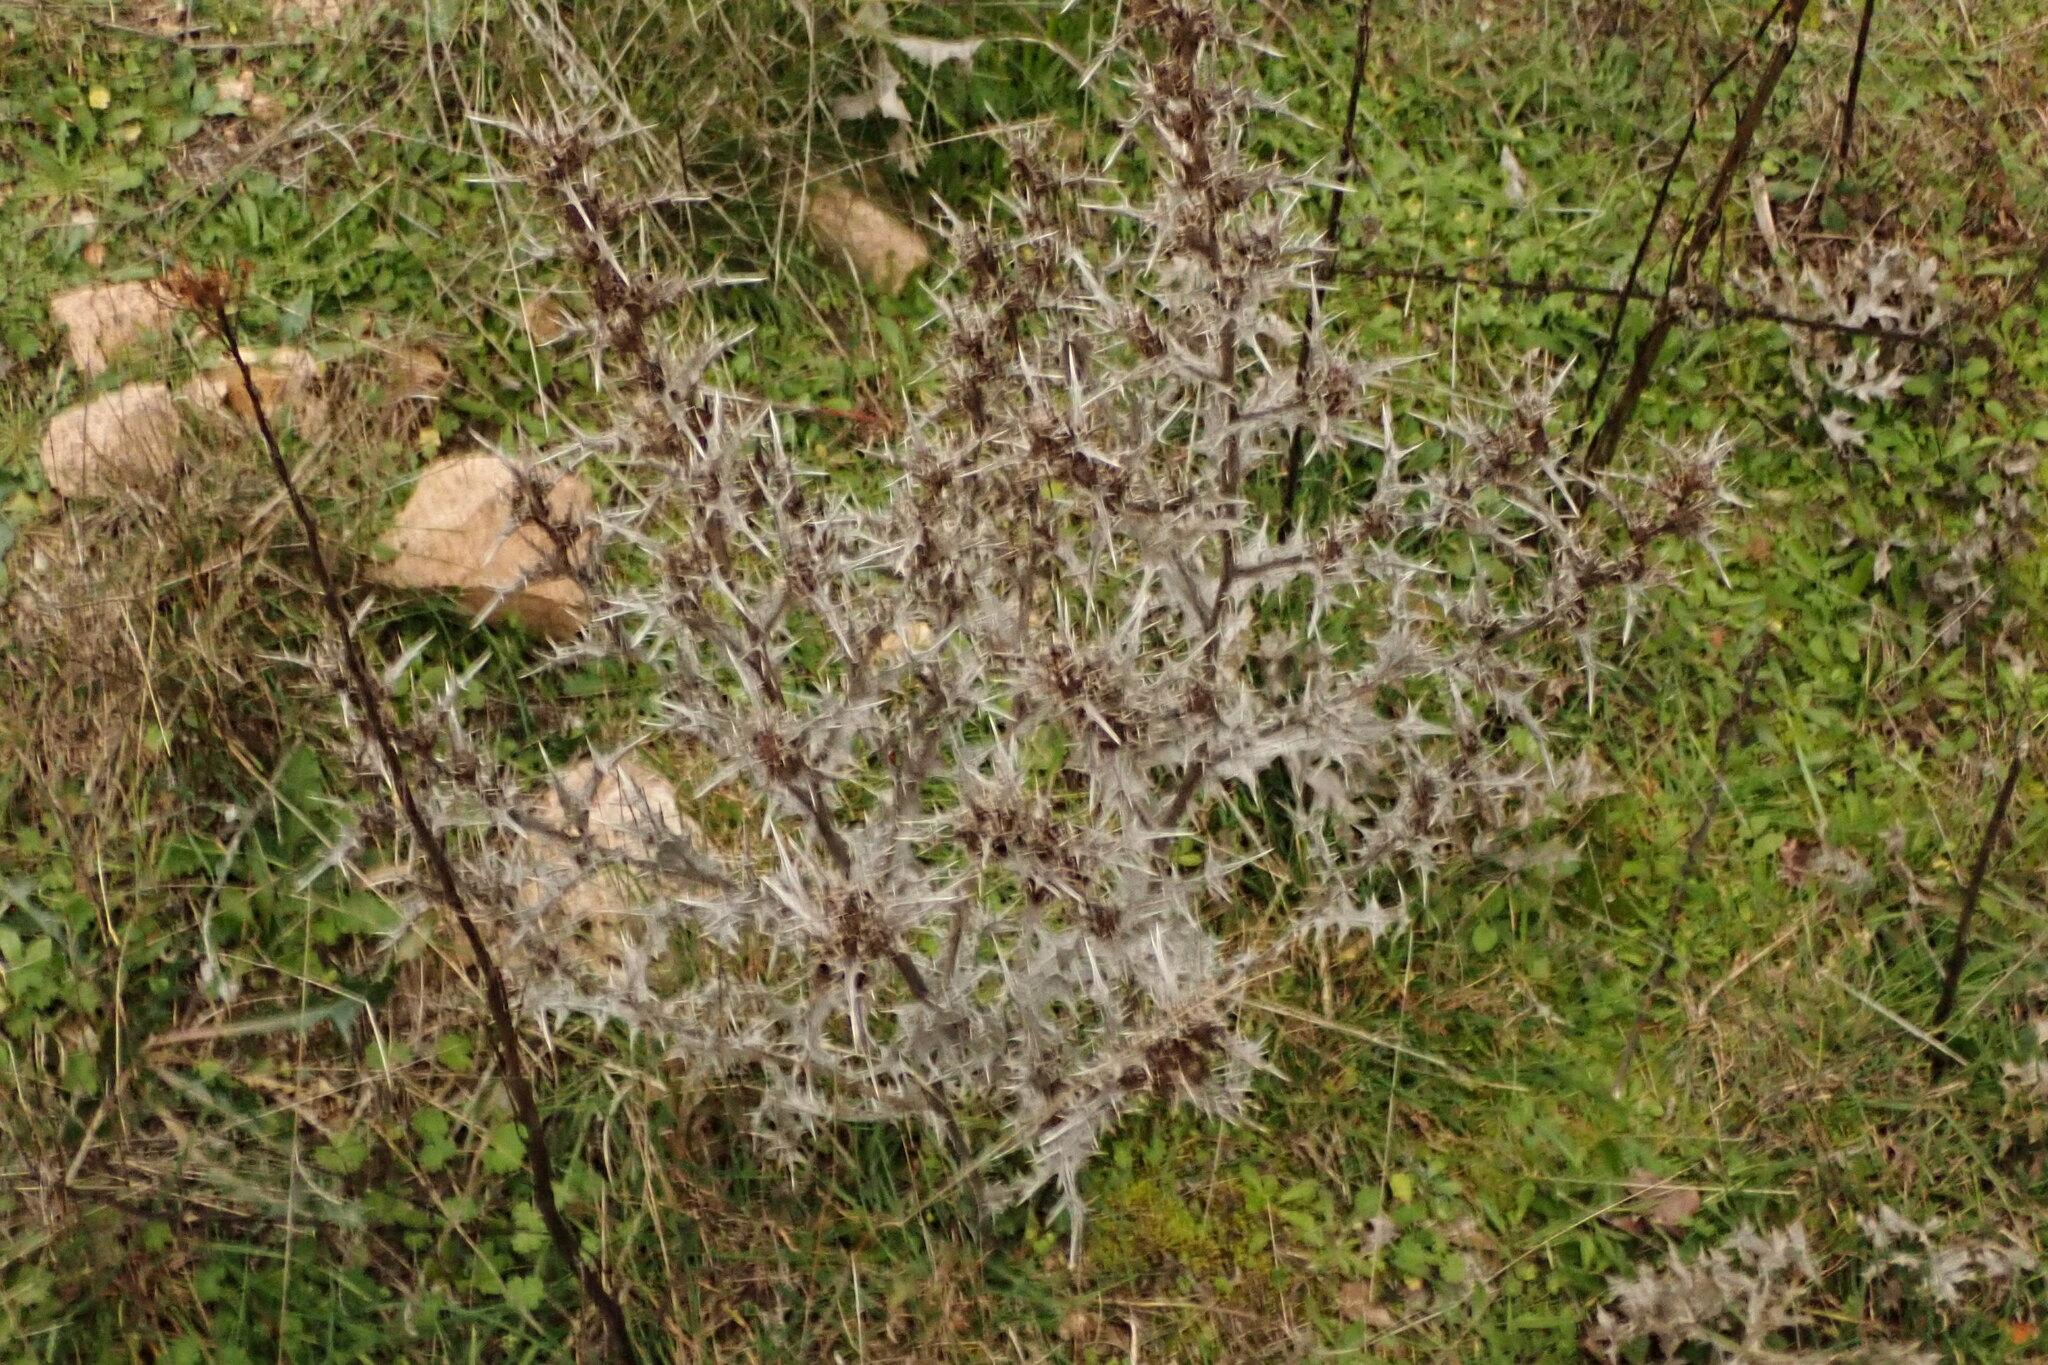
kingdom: Plantae
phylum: Tracheophyta
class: Magnoliopsida
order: Asterales
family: Asteraceae
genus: Scolymus
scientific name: Scolymus hispanicus
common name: Golden thistle
